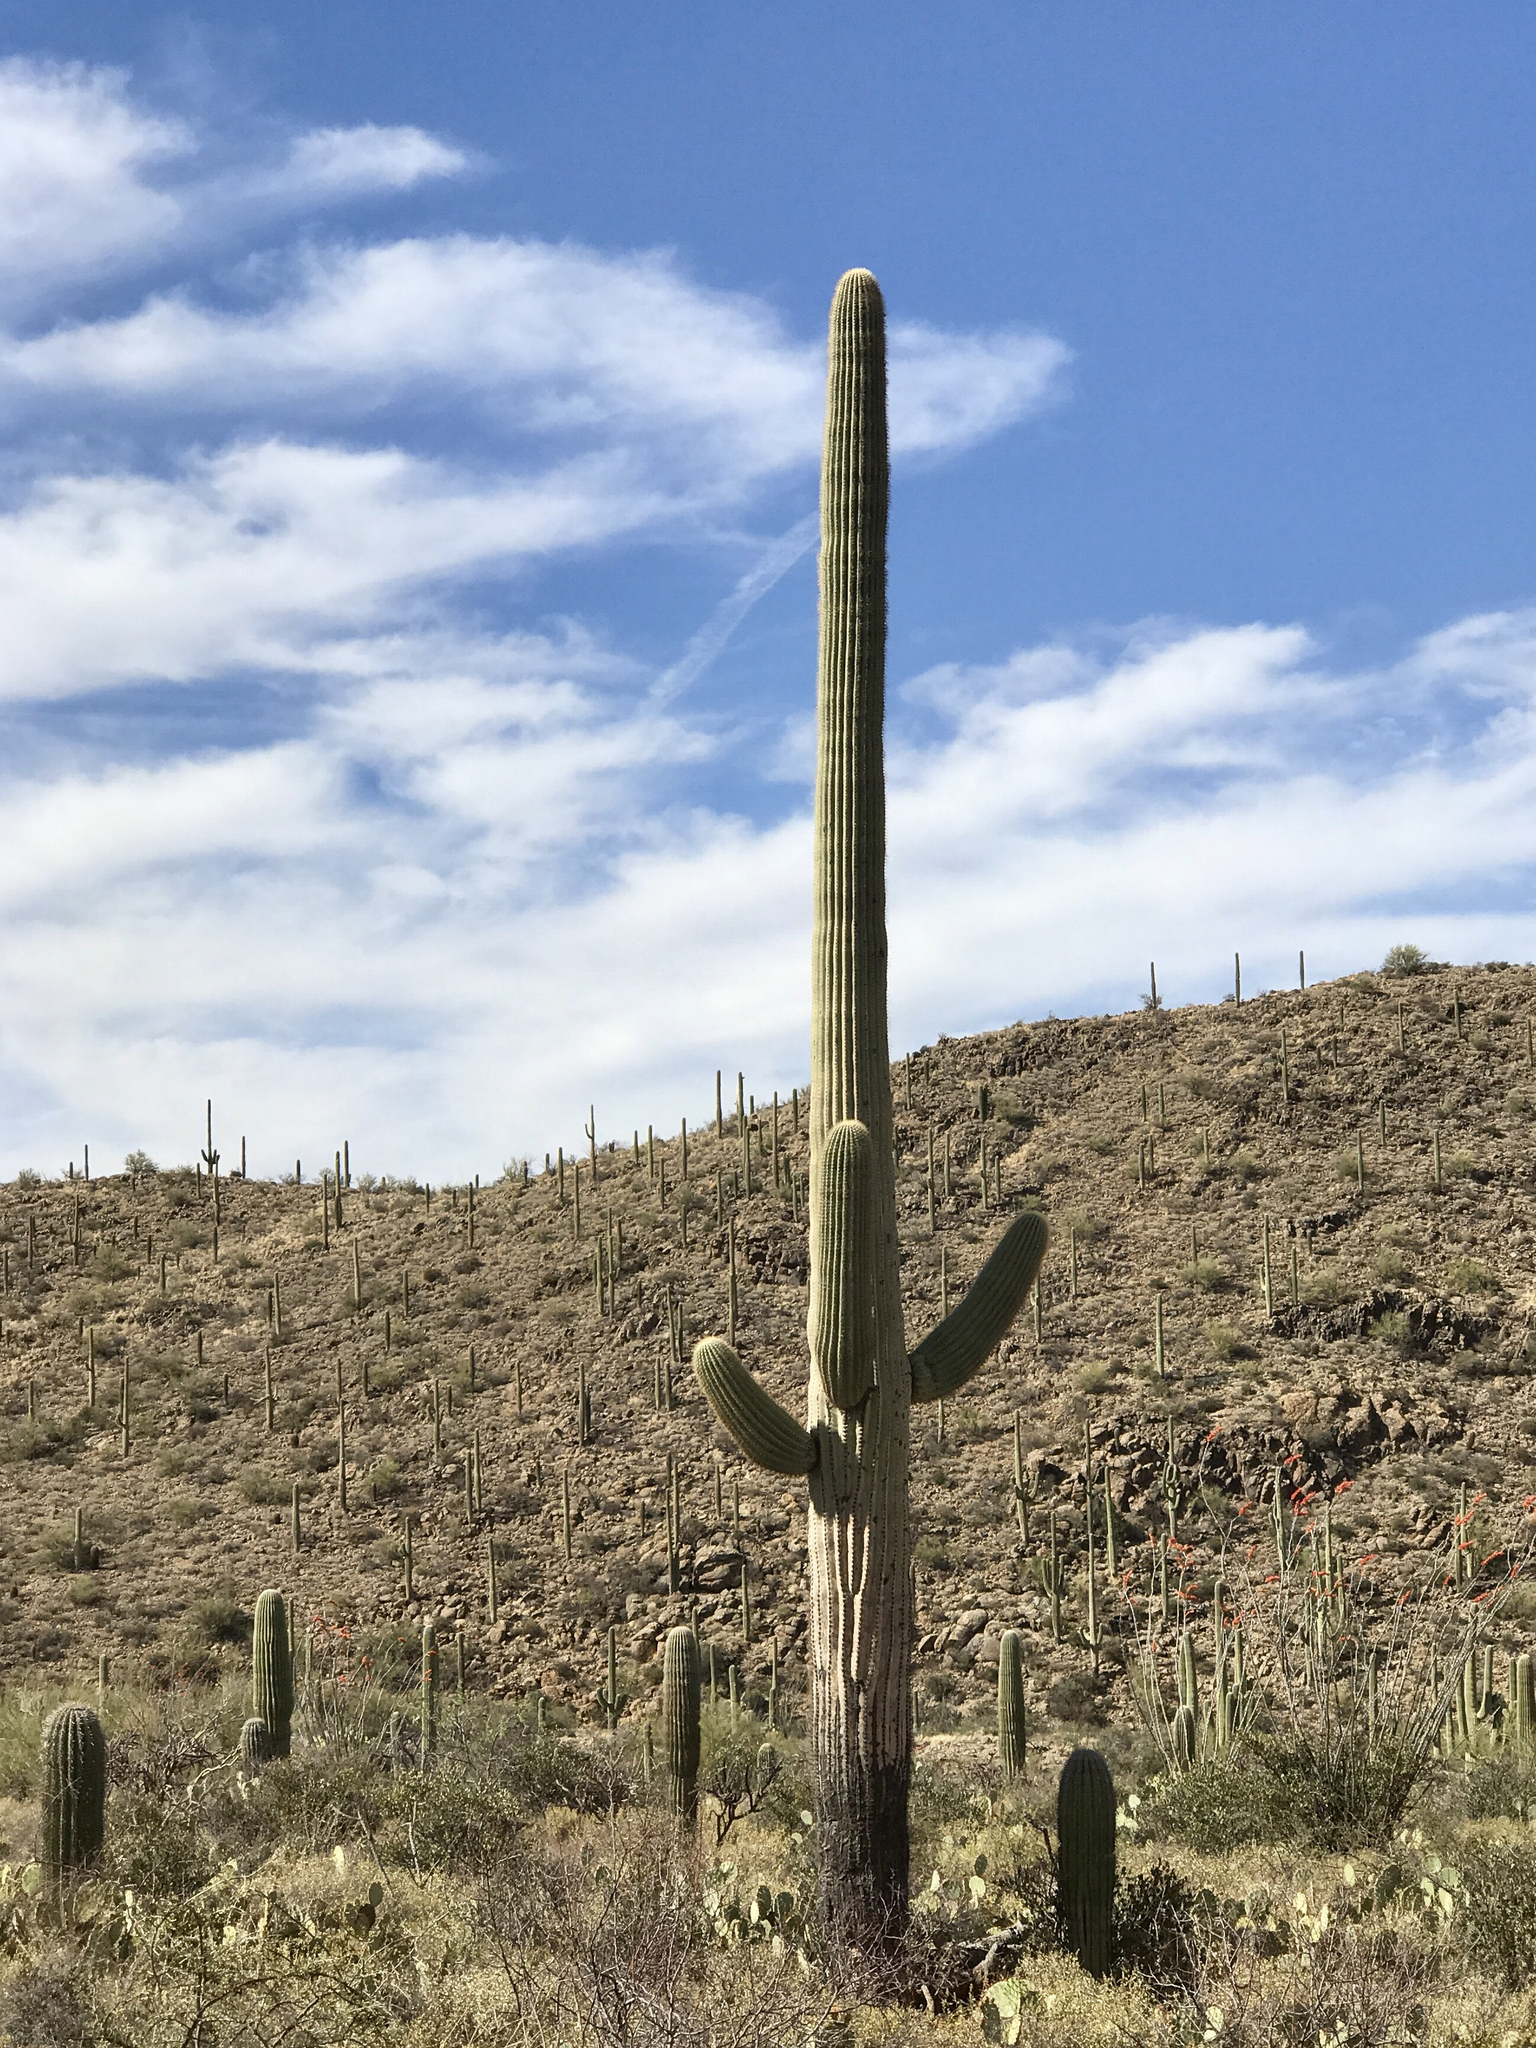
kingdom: Plantae
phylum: Tracheophyta
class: Magnoliopsida
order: Caryophyllales
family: Cactaceae
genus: Carnegiea
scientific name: Carnegiea gigantea
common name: Saguaro
